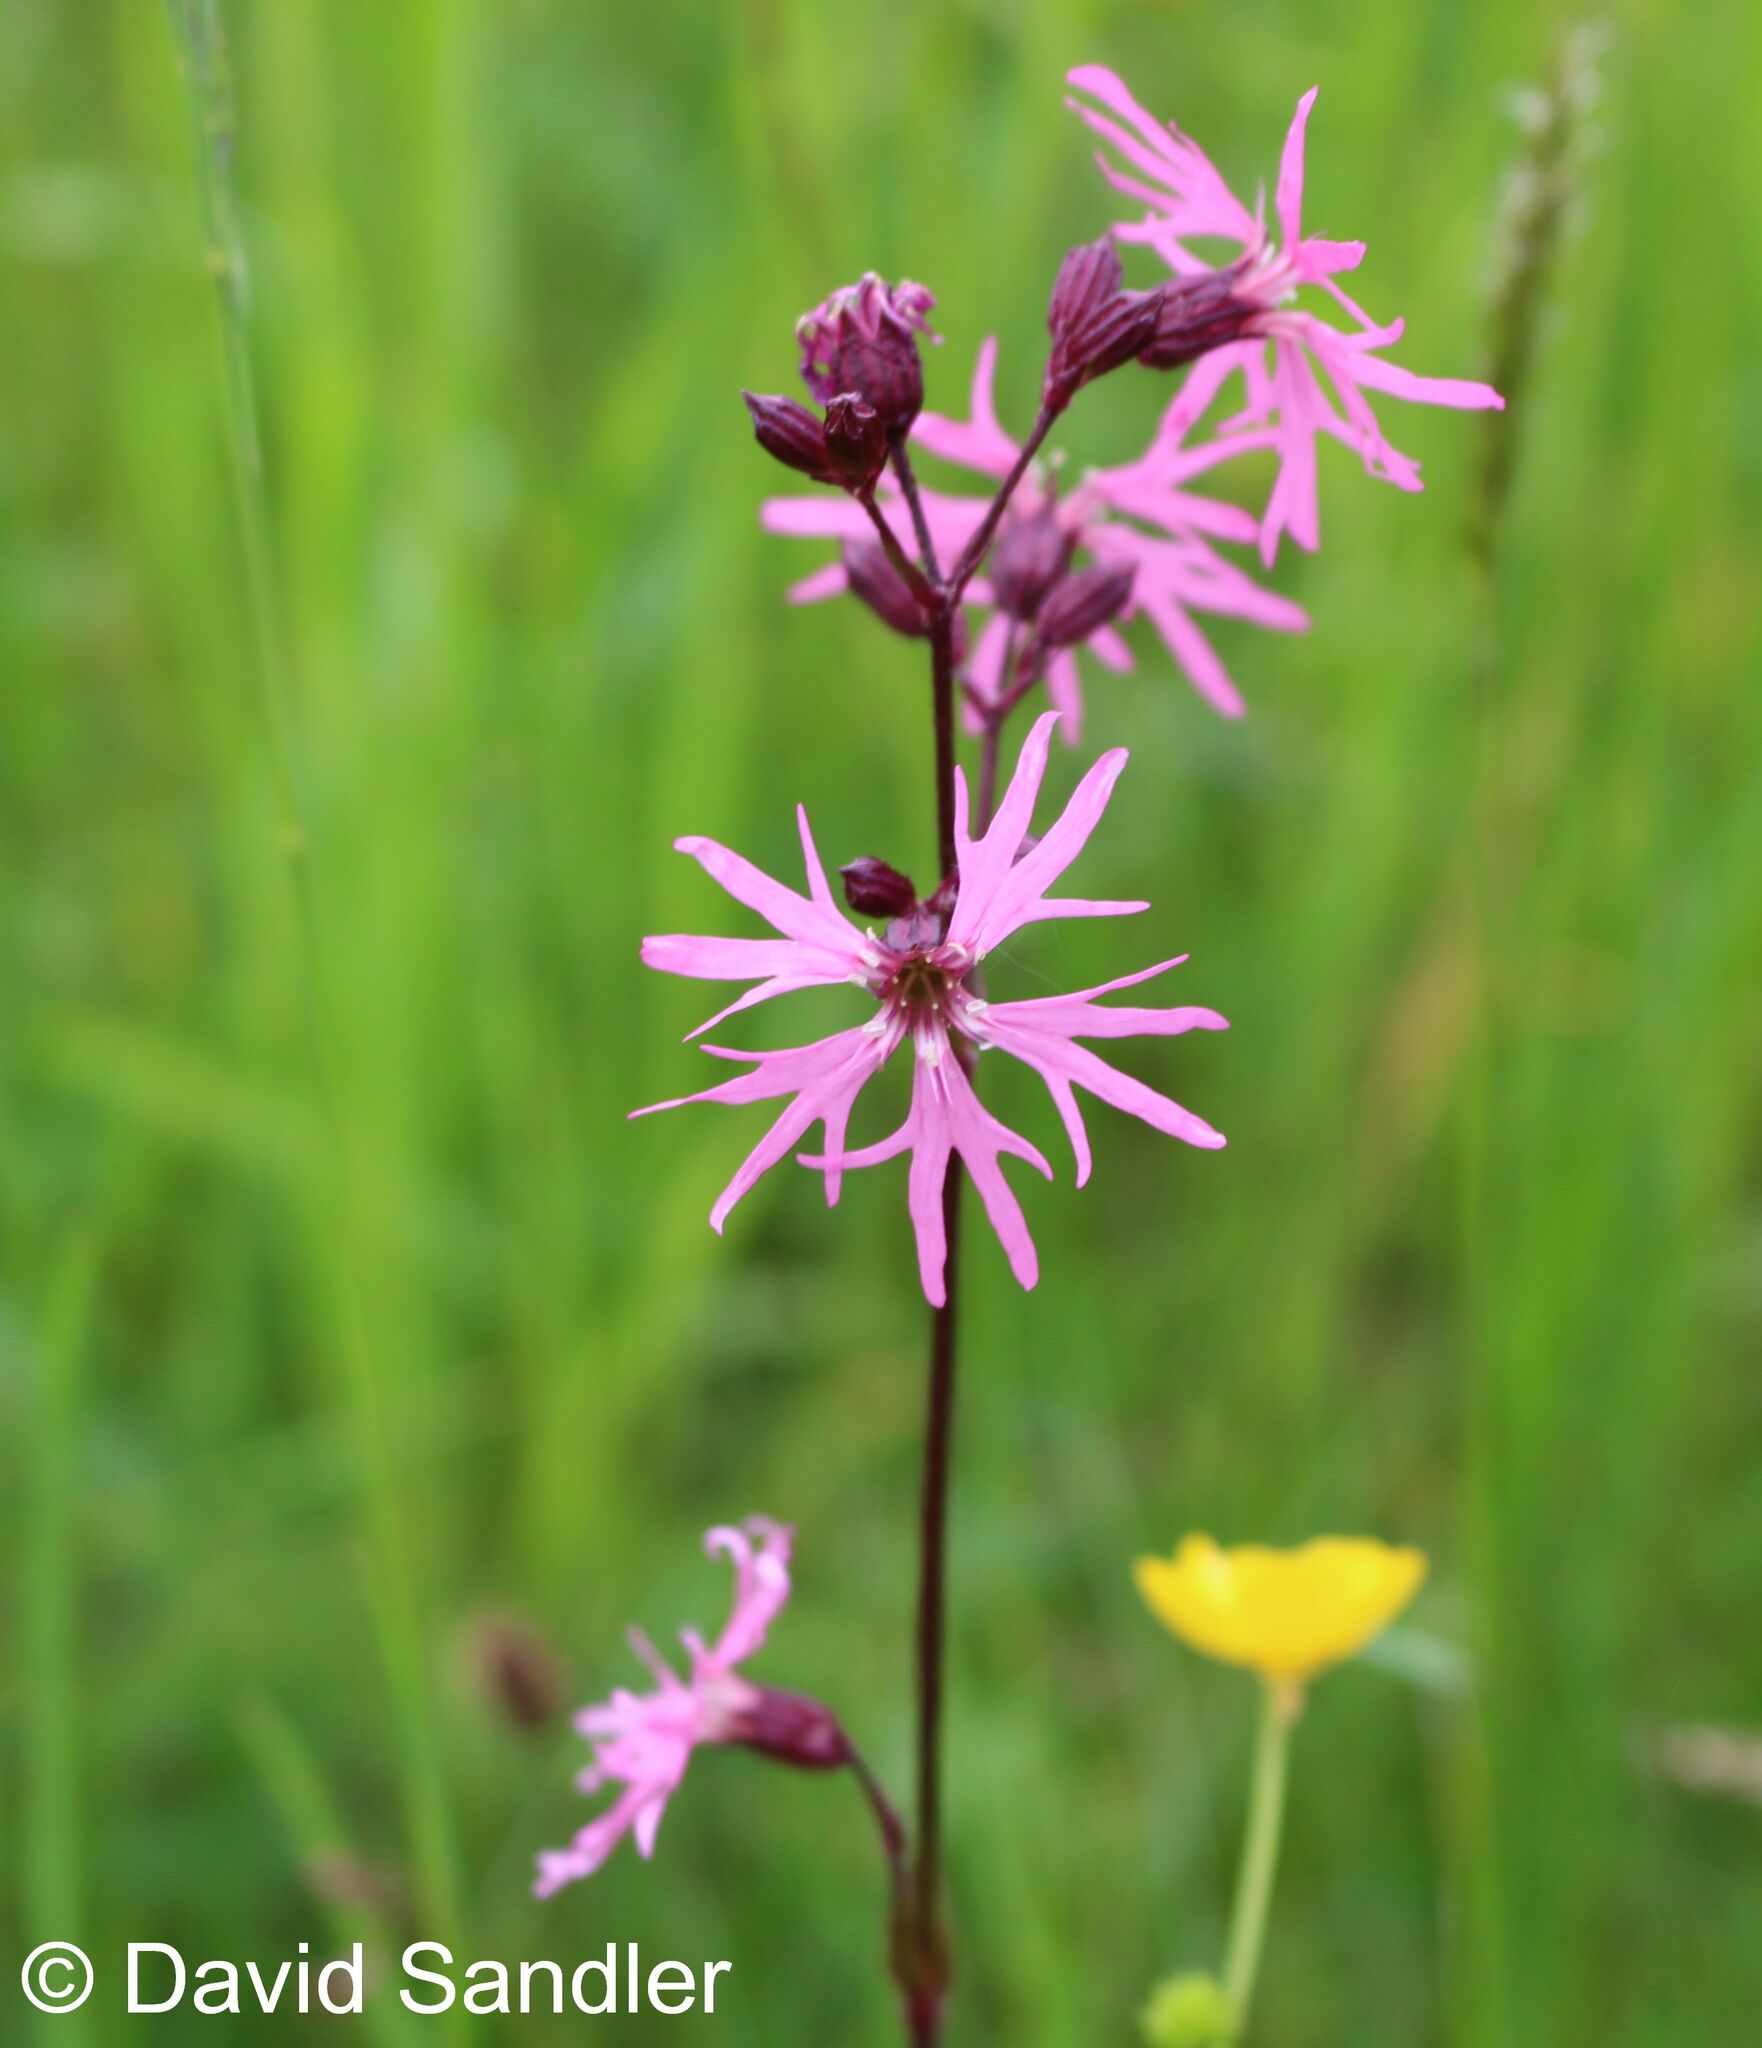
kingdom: Plantae
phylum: Tracheophyta
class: Magnoliopsida
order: Caryophyllales
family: Caryophyllaceae
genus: Silene
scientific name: Silene flos-cuculi
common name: Ragged-robin
